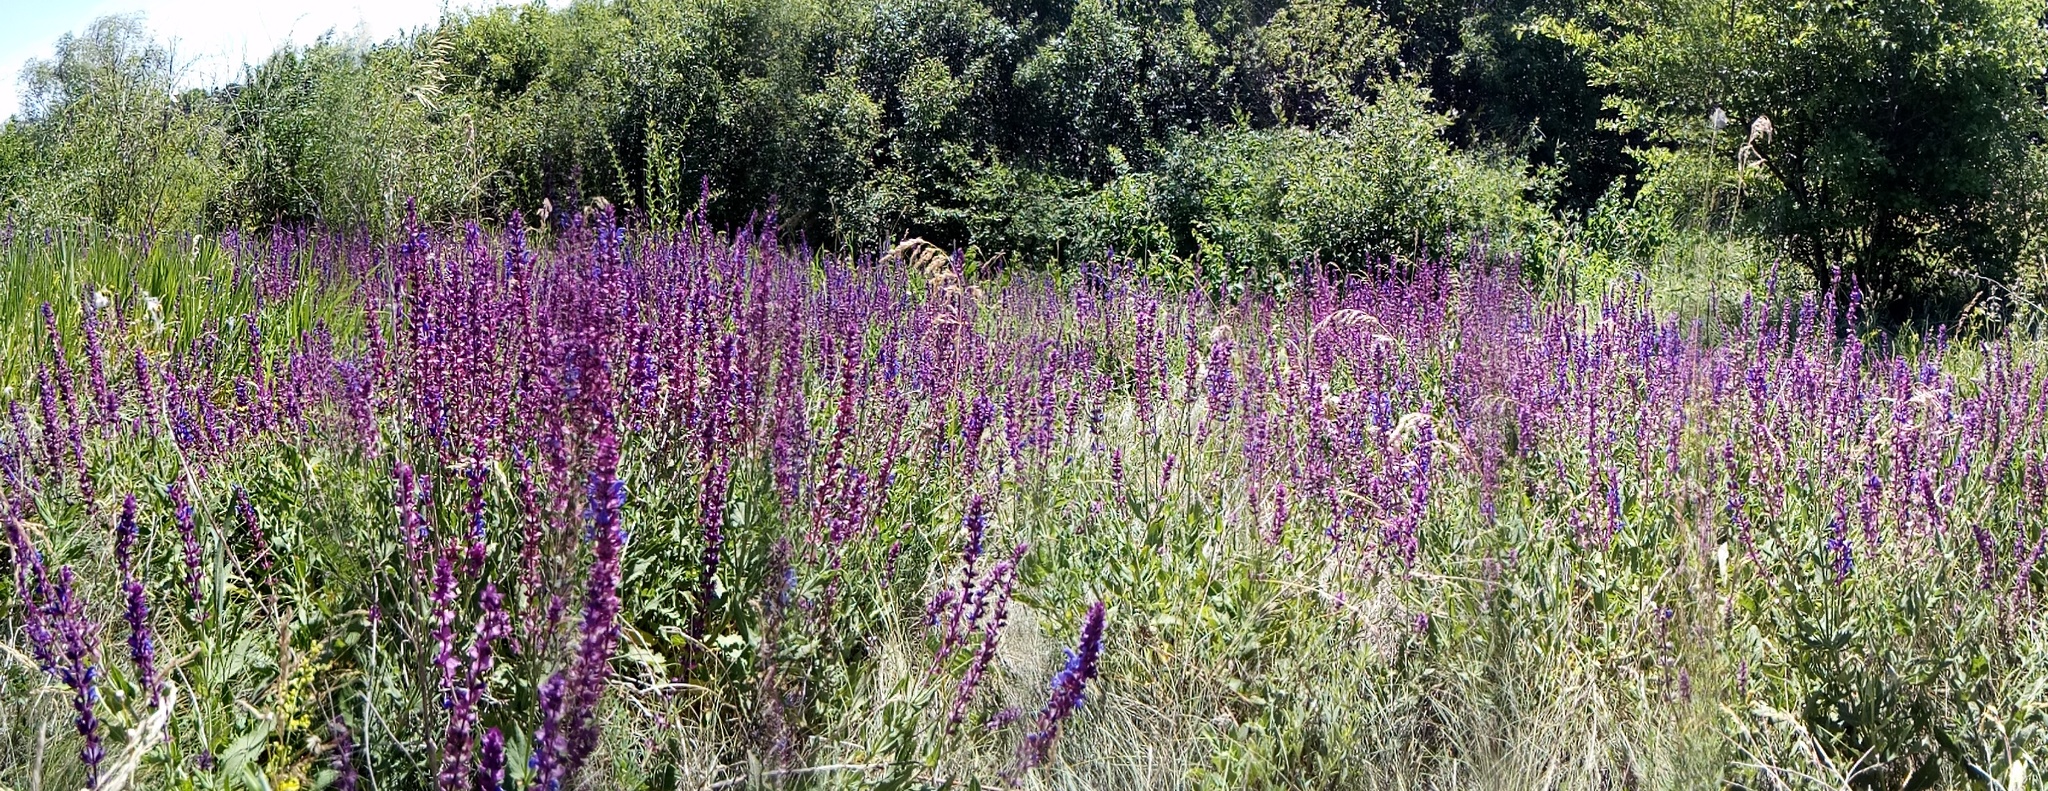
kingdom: Plantae
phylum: Tracheophyta
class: Magnoliopsida
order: Lamiales
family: Lamiaceae
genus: Salvia
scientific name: Salvia nemorosa
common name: Balkan clary
